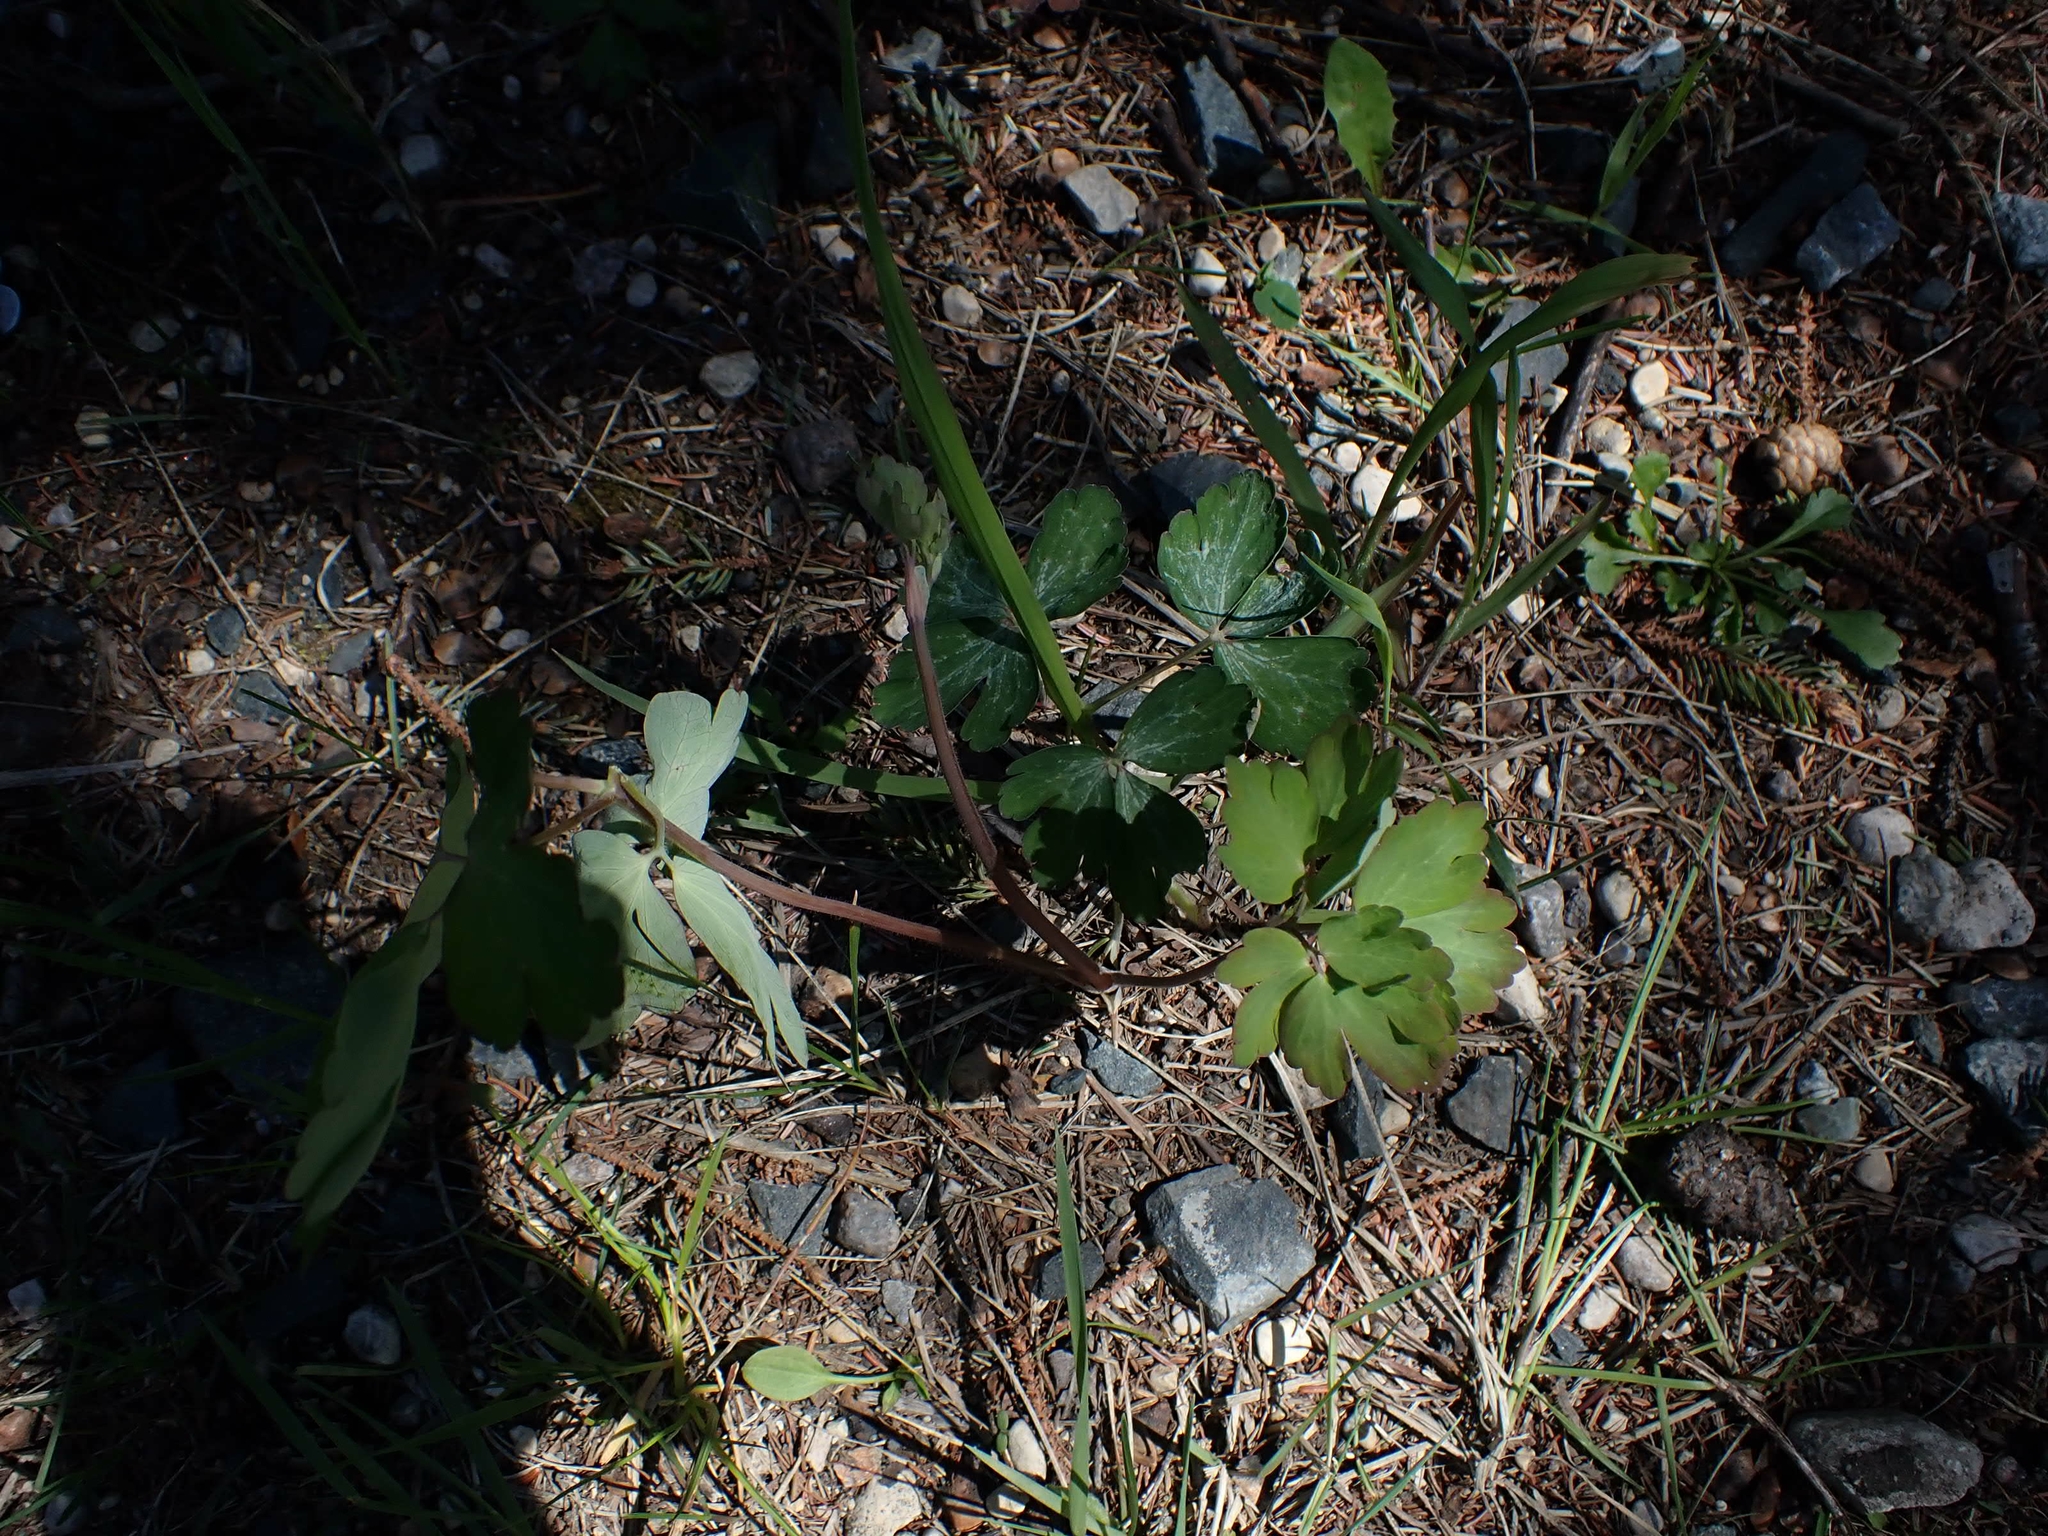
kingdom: Plantae
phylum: Tracheophyta
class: Magnoliopsida
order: Ranunculales
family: Ranunculaceae
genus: Aquilegia
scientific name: Aquilegia canadensis
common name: American columbine
